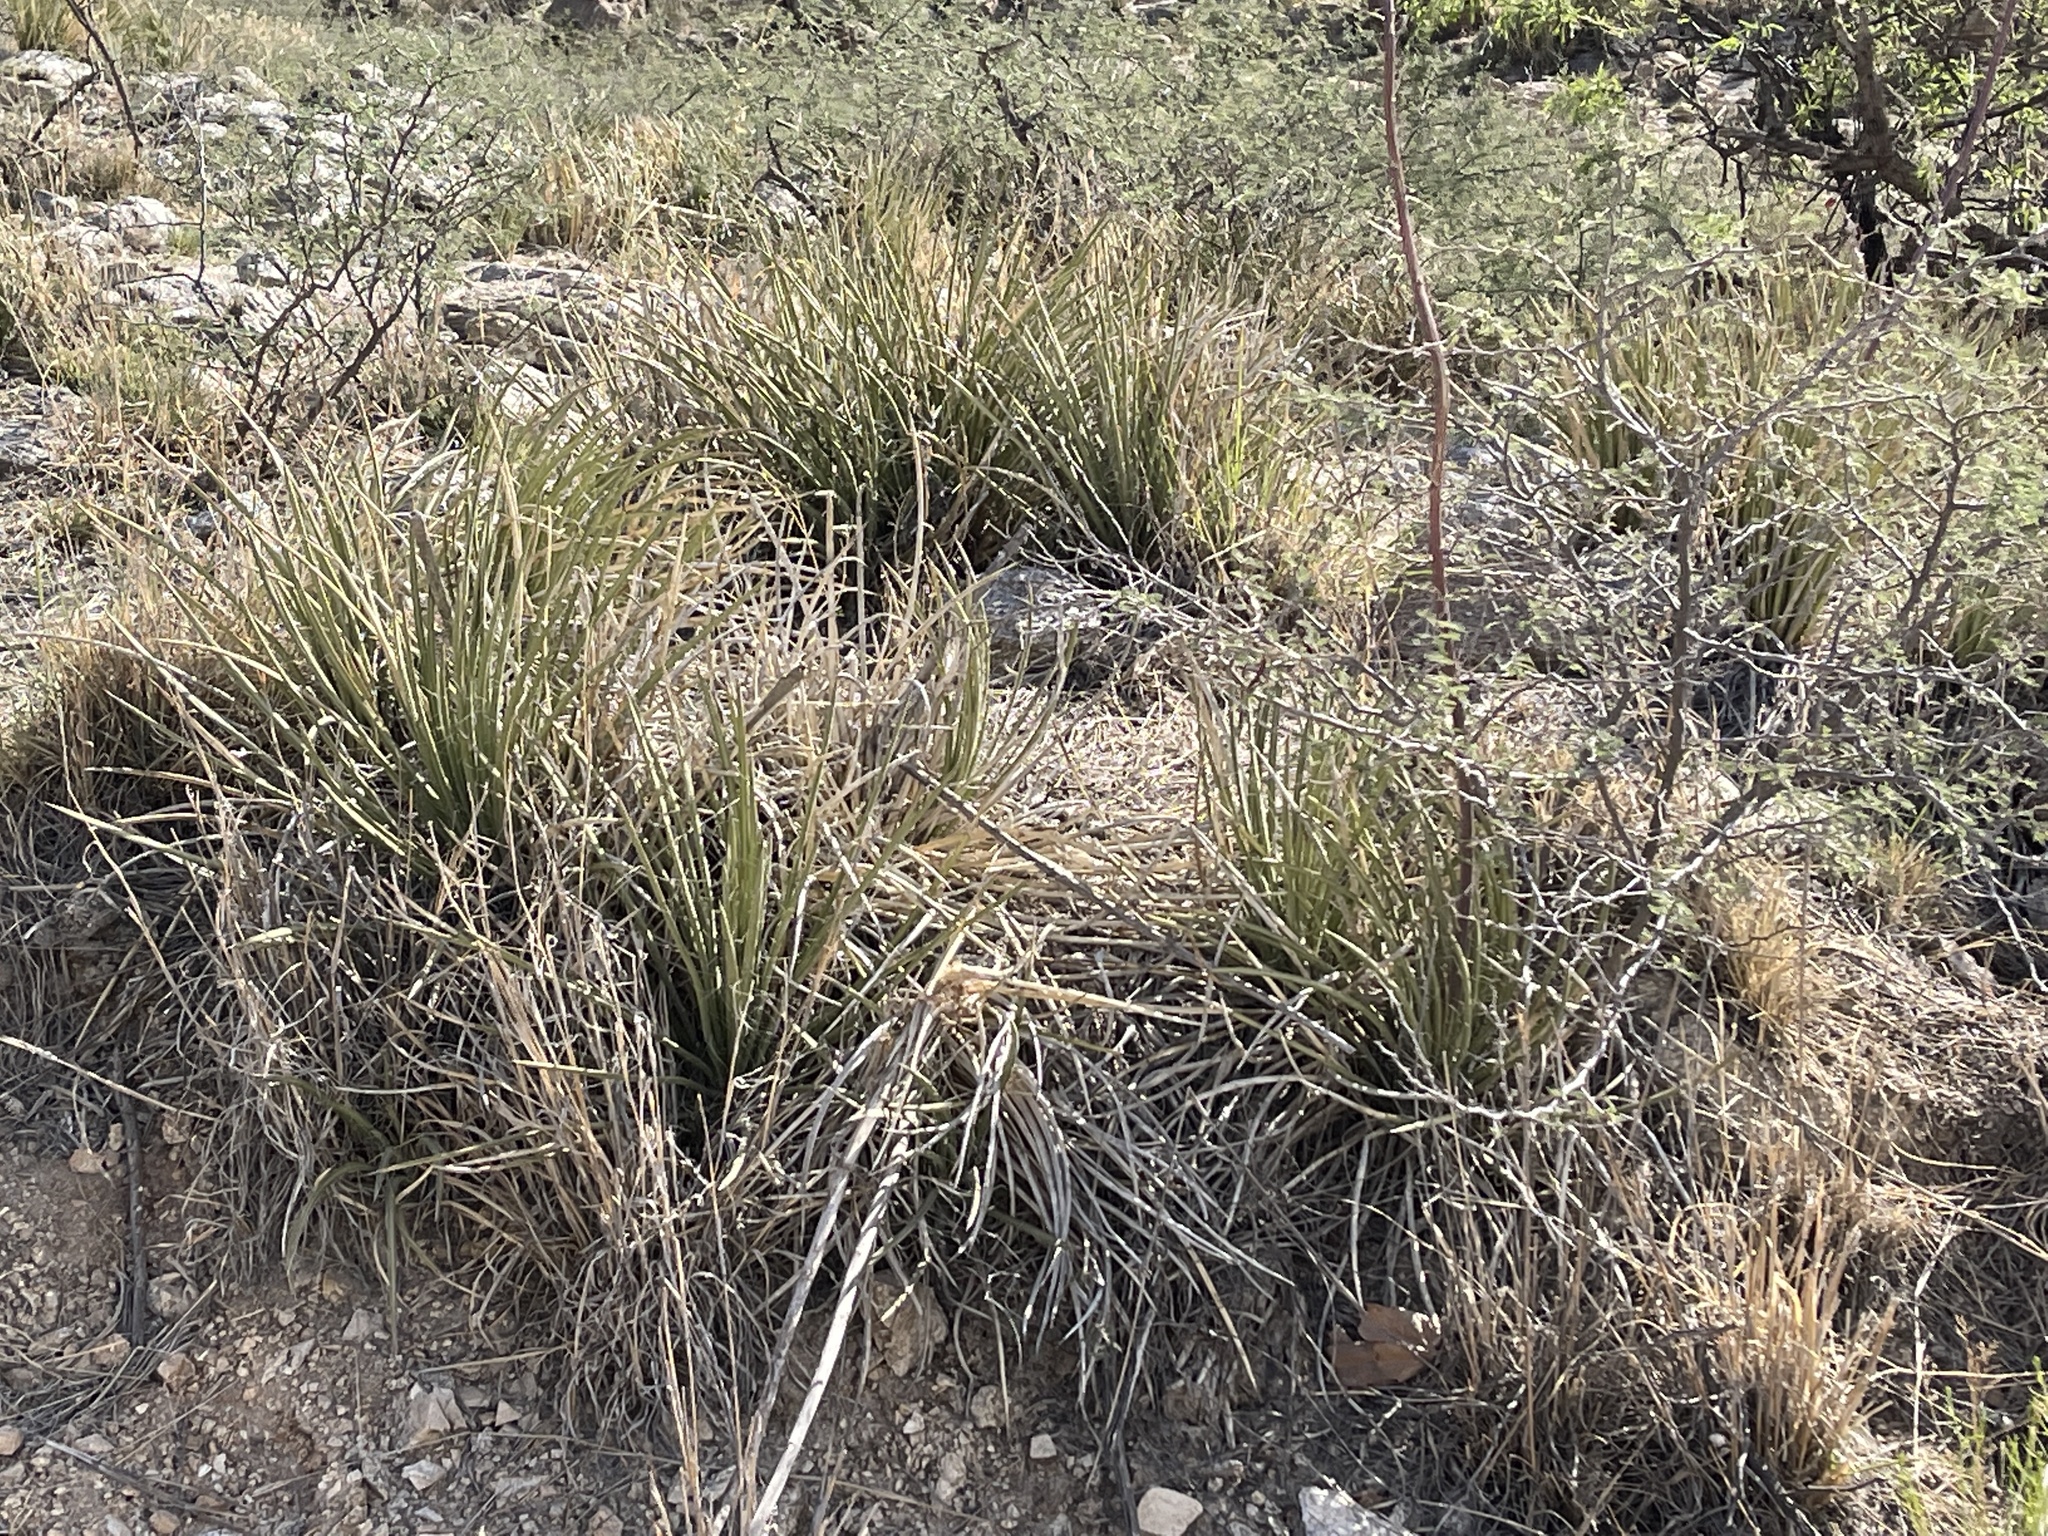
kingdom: Plantae
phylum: Tracheophyta
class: Liliopsida
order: Asparagales
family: Asparagaceae
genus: Agave
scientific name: Agave schottii
